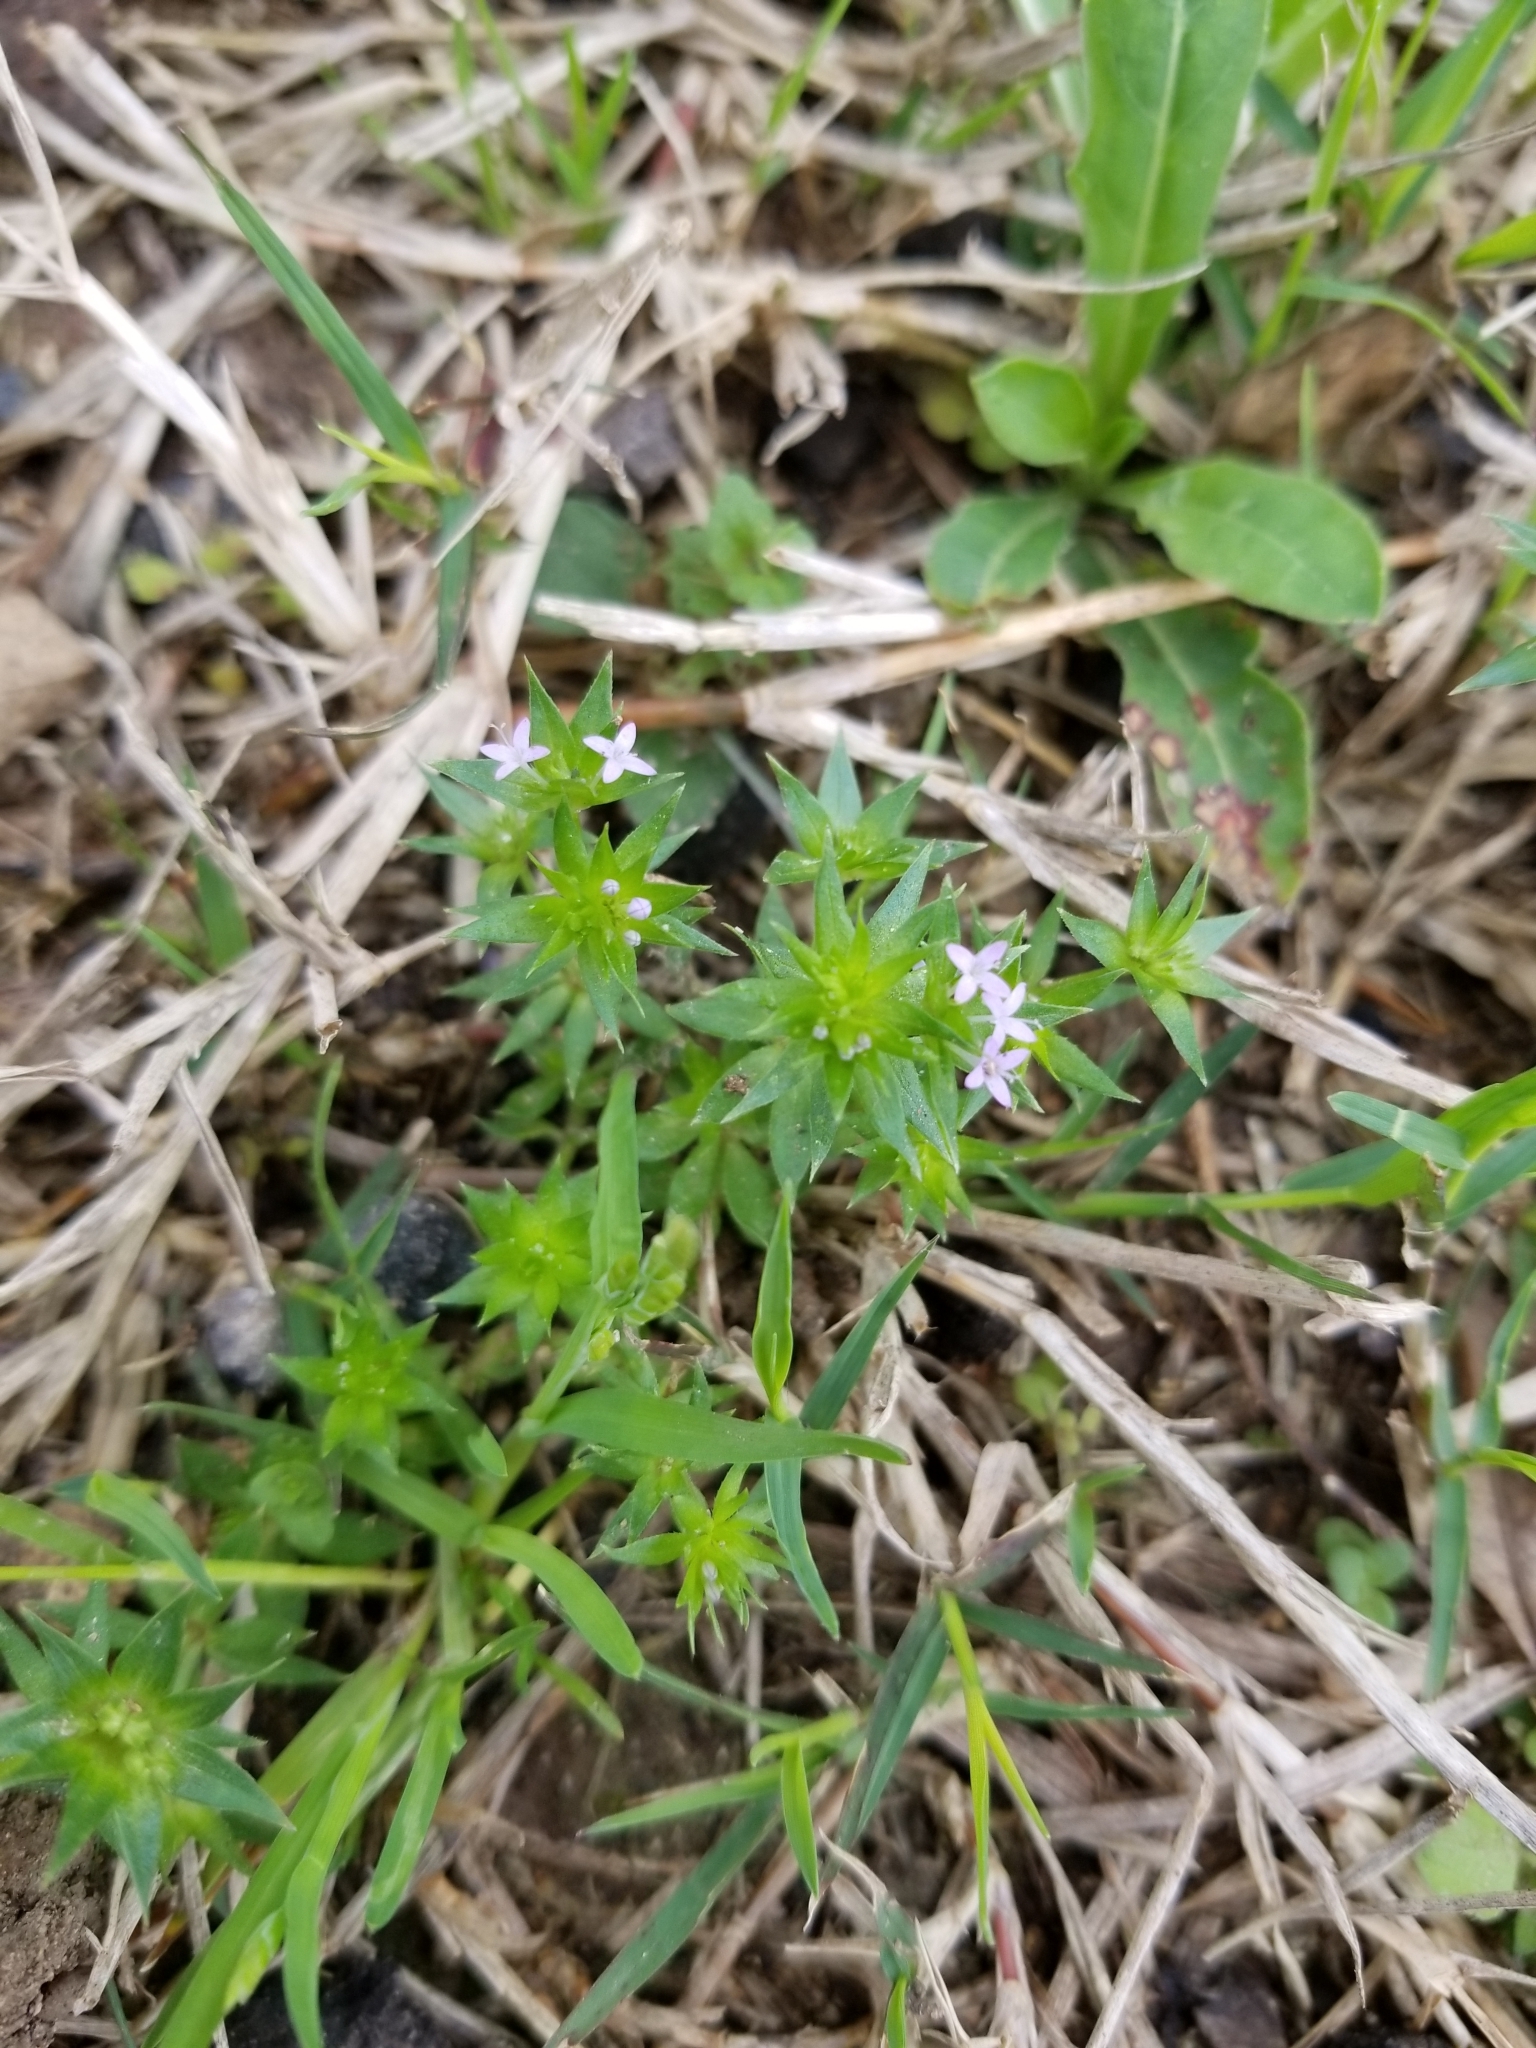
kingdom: Plantae
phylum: Tracheophyta
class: Magnoliopsida
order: Gentianales
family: Rubiaceae
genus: Sherardia
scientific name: Sherardia arvensis
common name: Field madder
